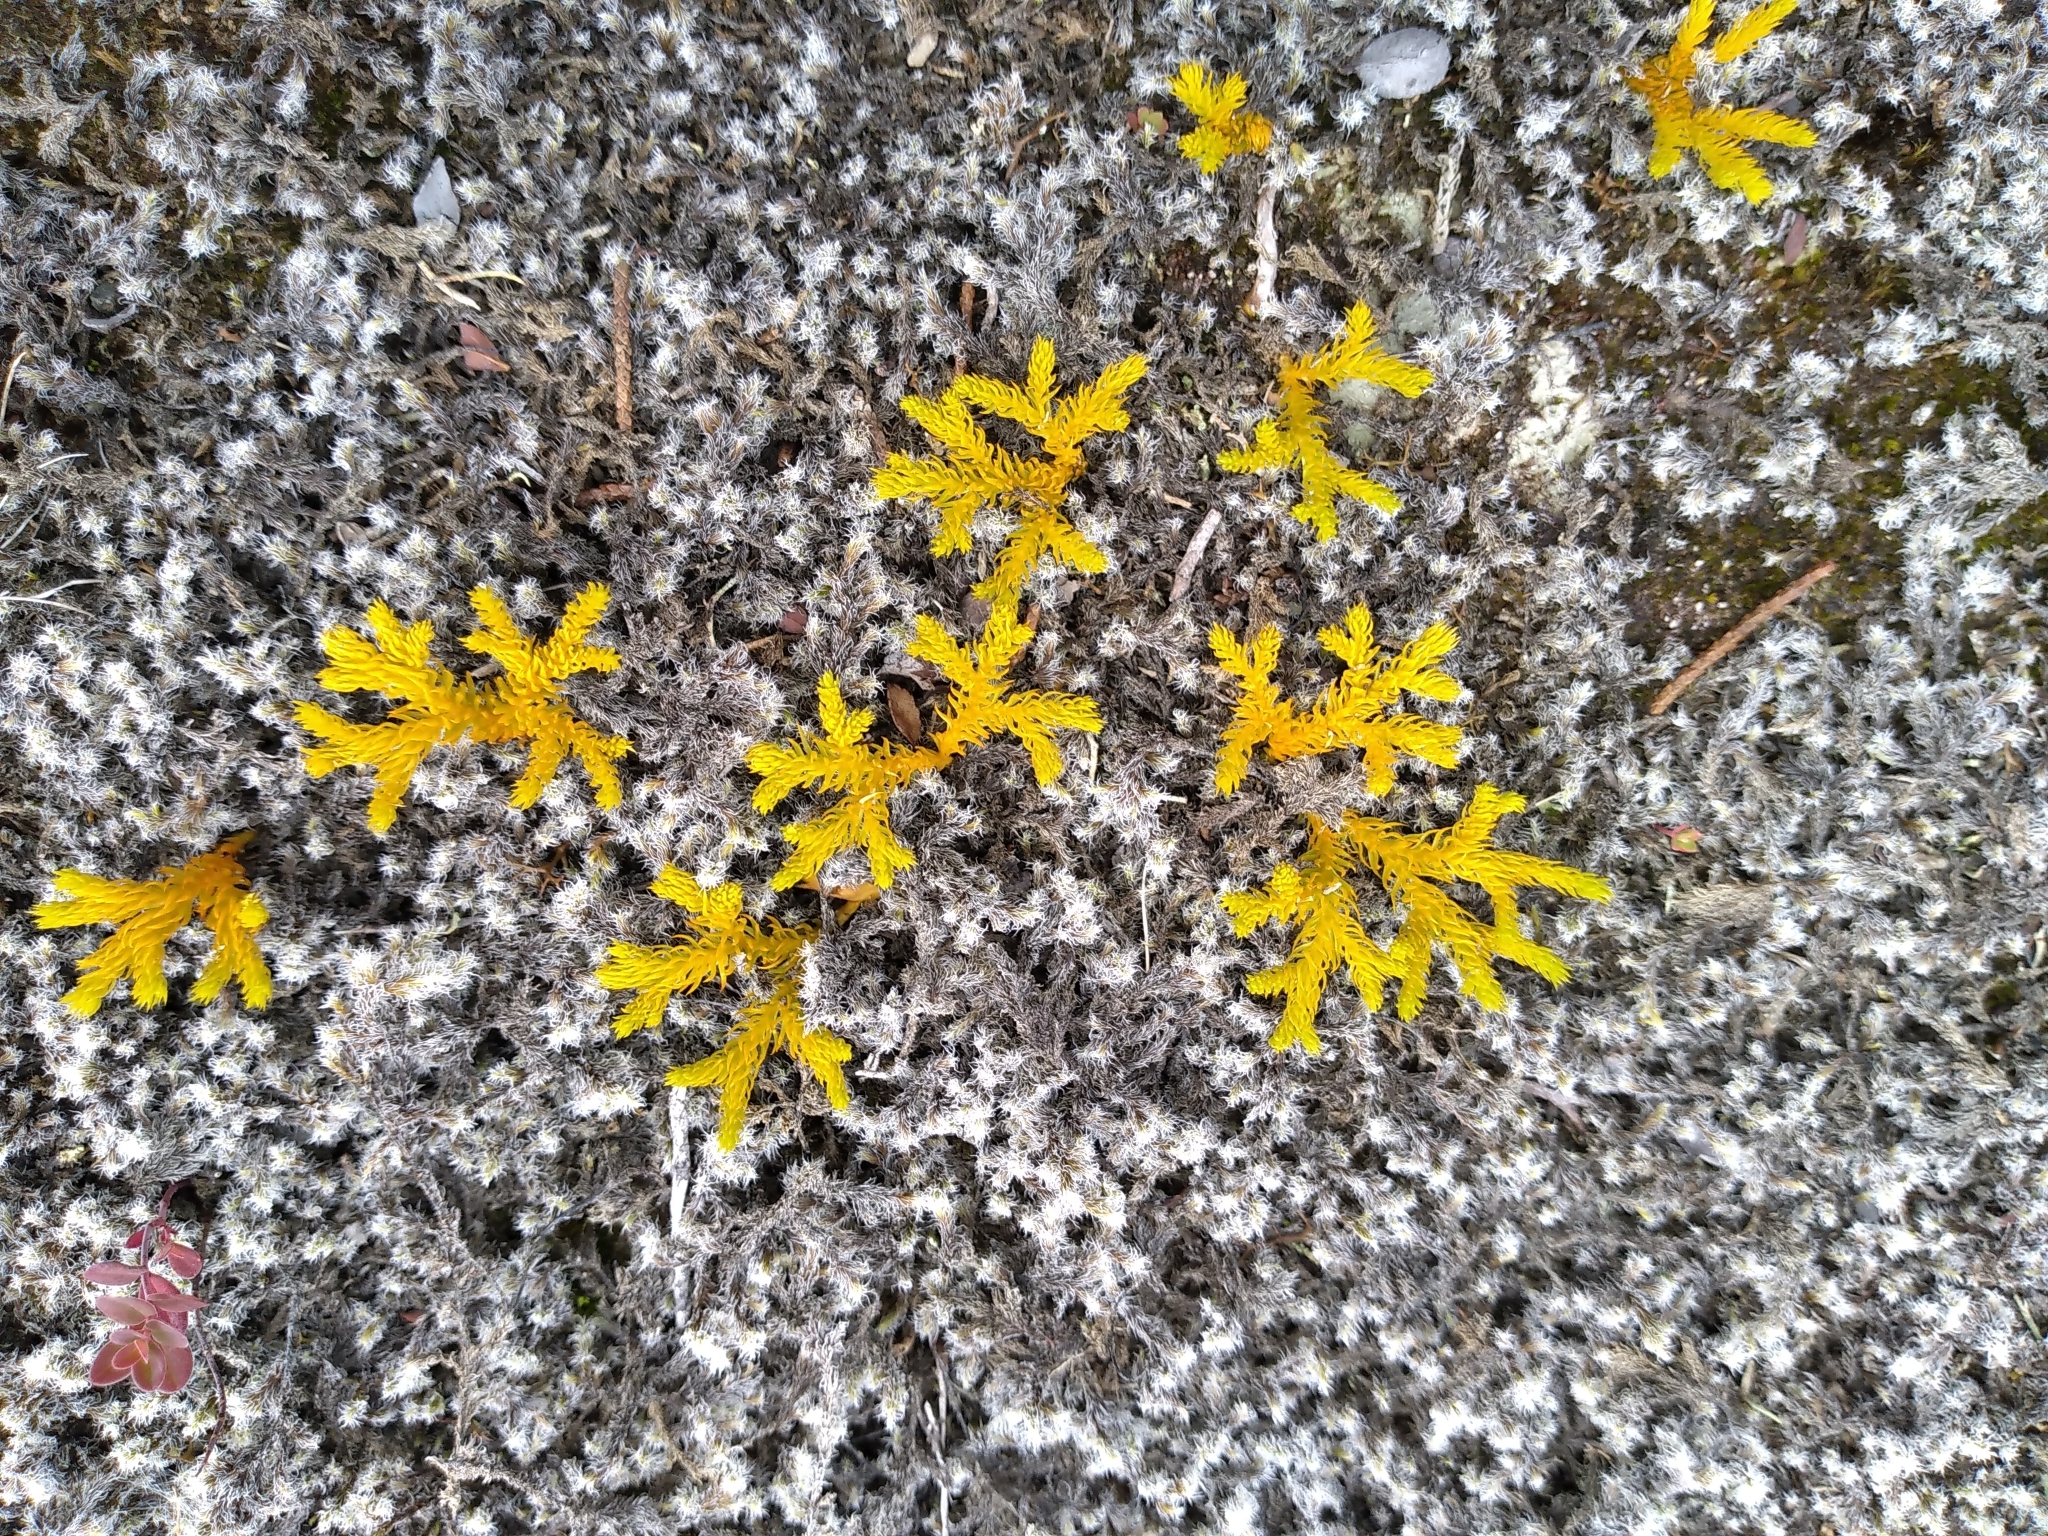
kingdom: Plantae
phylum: Tracheophyta
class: Lycopodiopsida
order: Lycopodiales
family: Lycopodiaceae
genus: Austrolycopodium
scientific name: Austrolycopodium fastigiatum
